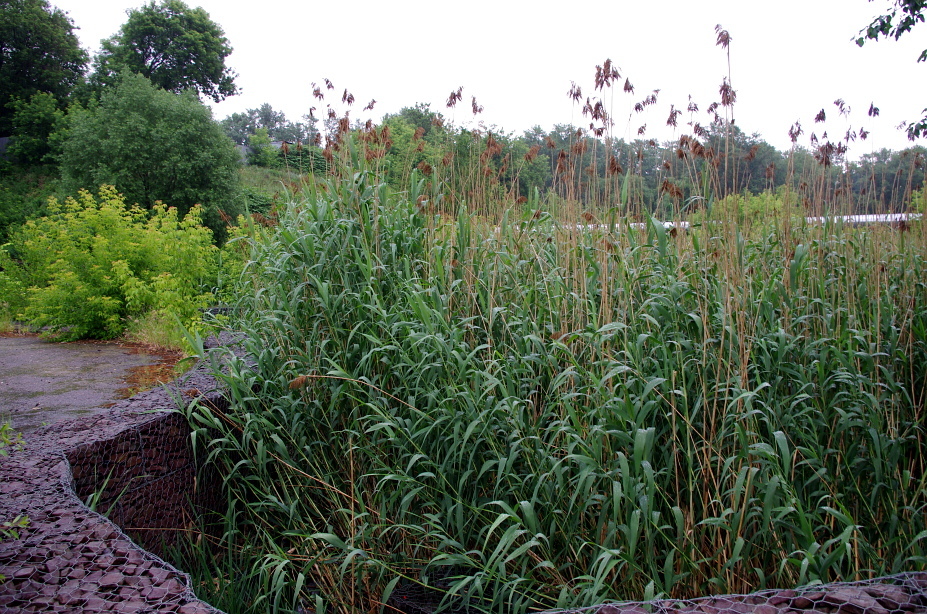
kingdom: Plantae
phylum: Tracheophyta
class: Liliopsida
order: Poales
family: Poaceae
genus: Phragmites
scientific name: Phragmites australis
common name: Common reed
